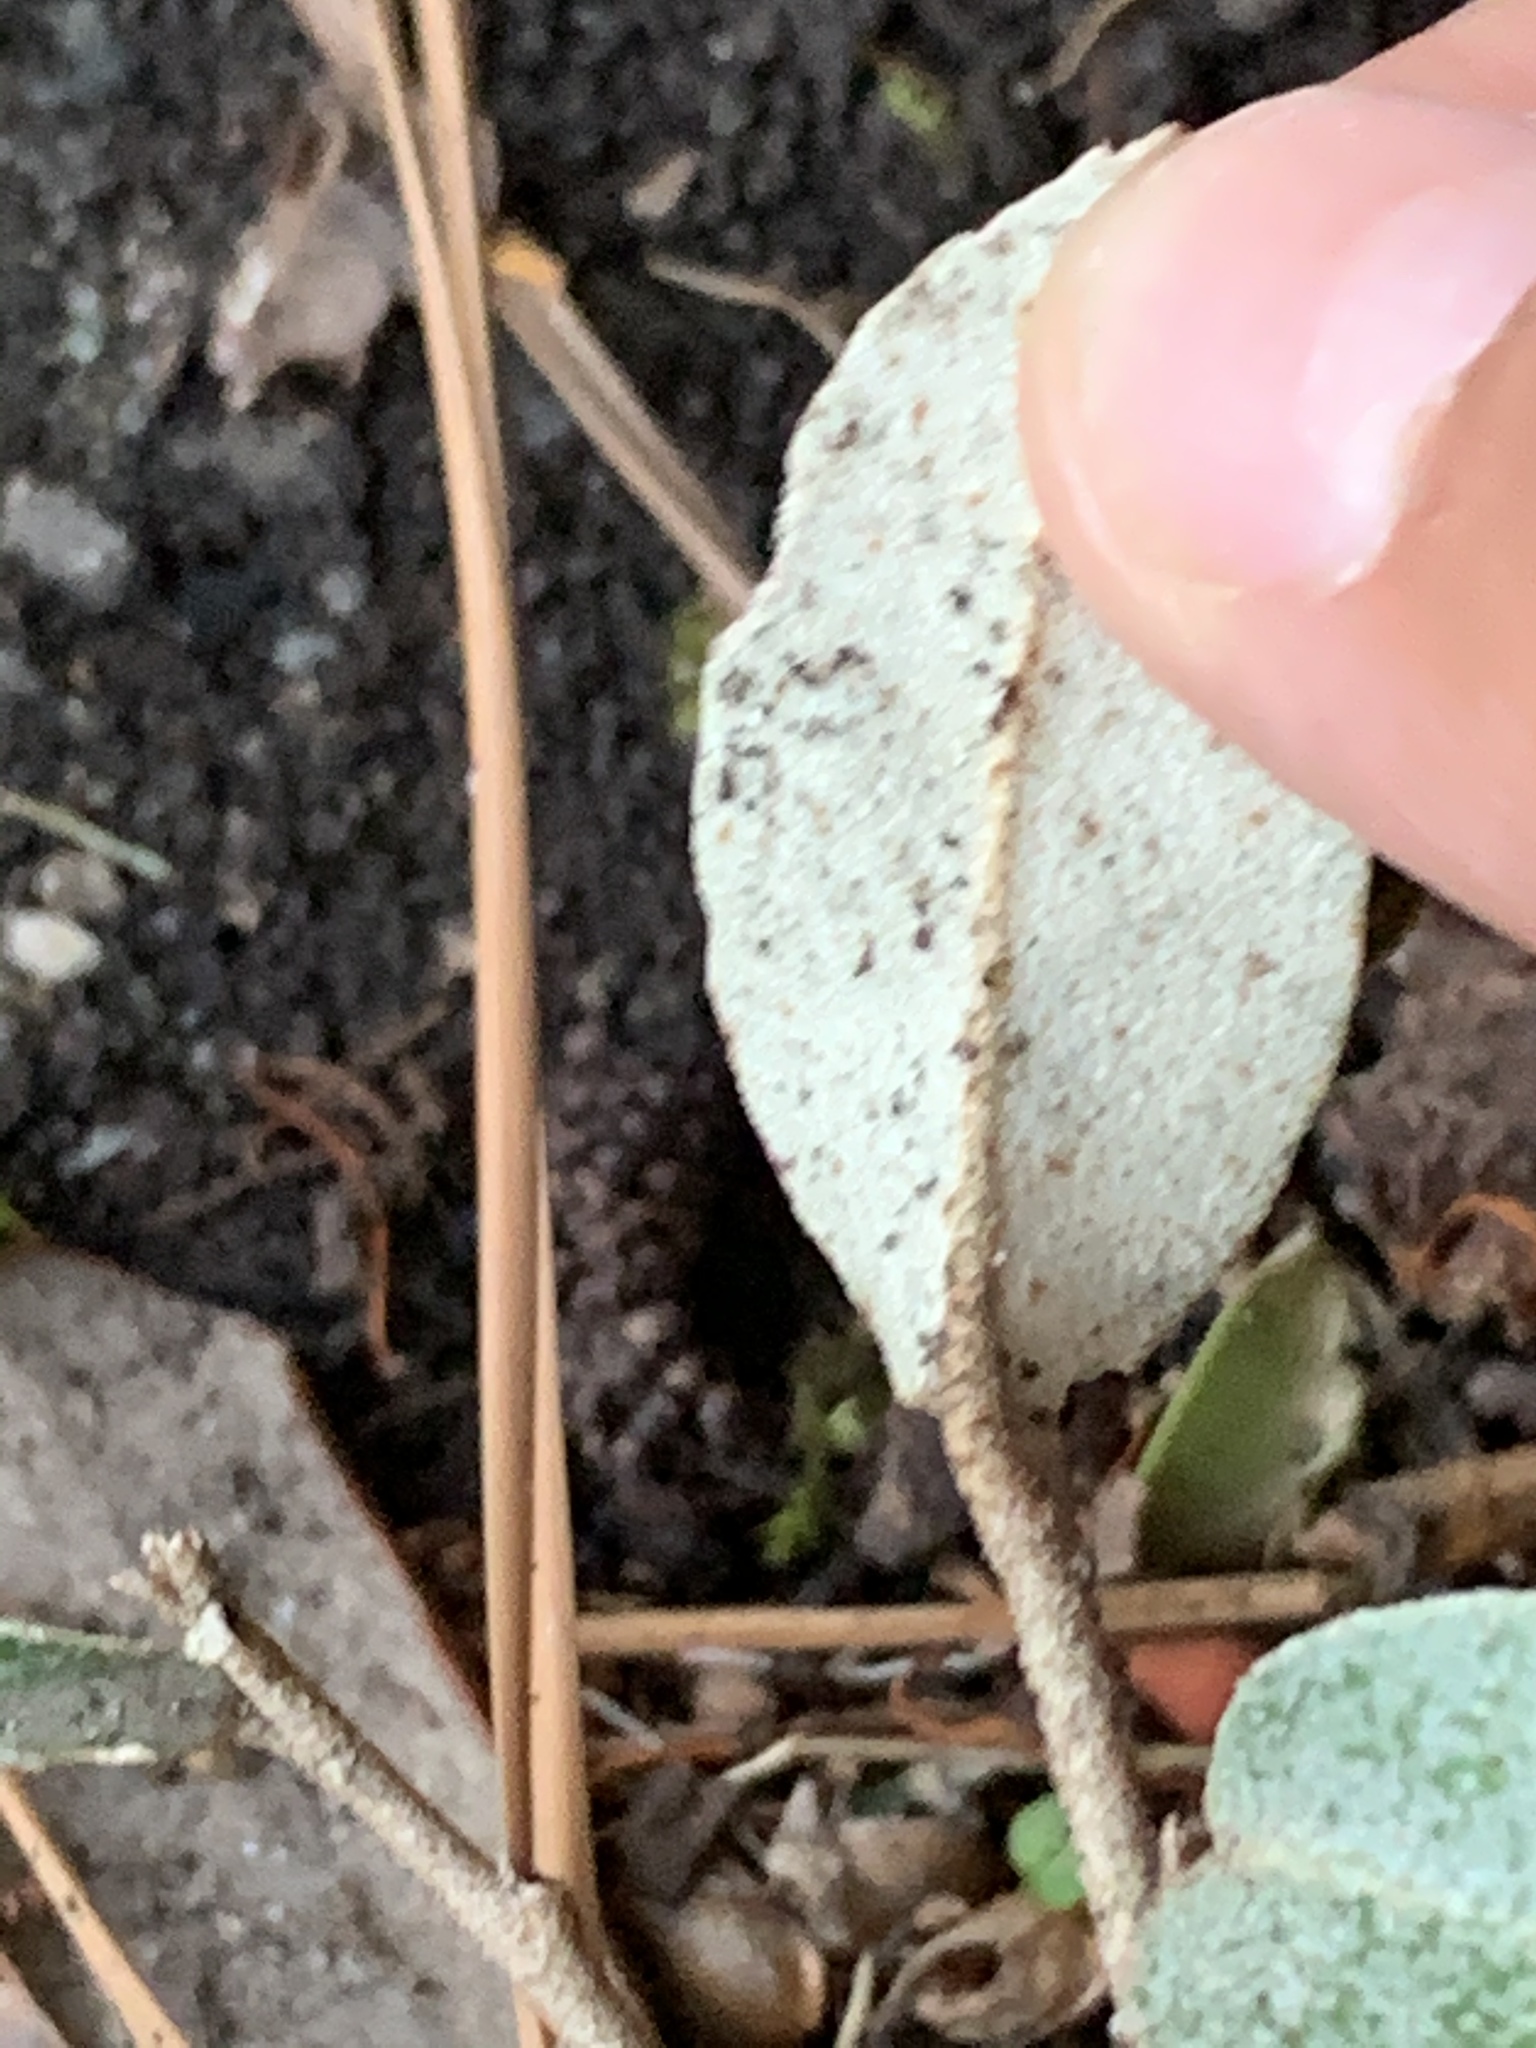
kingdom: Plantae
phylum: Tracheophyta
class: Magnoliopsida
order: Rosales
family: Elaeagnaceae
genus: Elaeagnus
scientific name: Elaeagnus pungens
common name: Spiny oleaster
